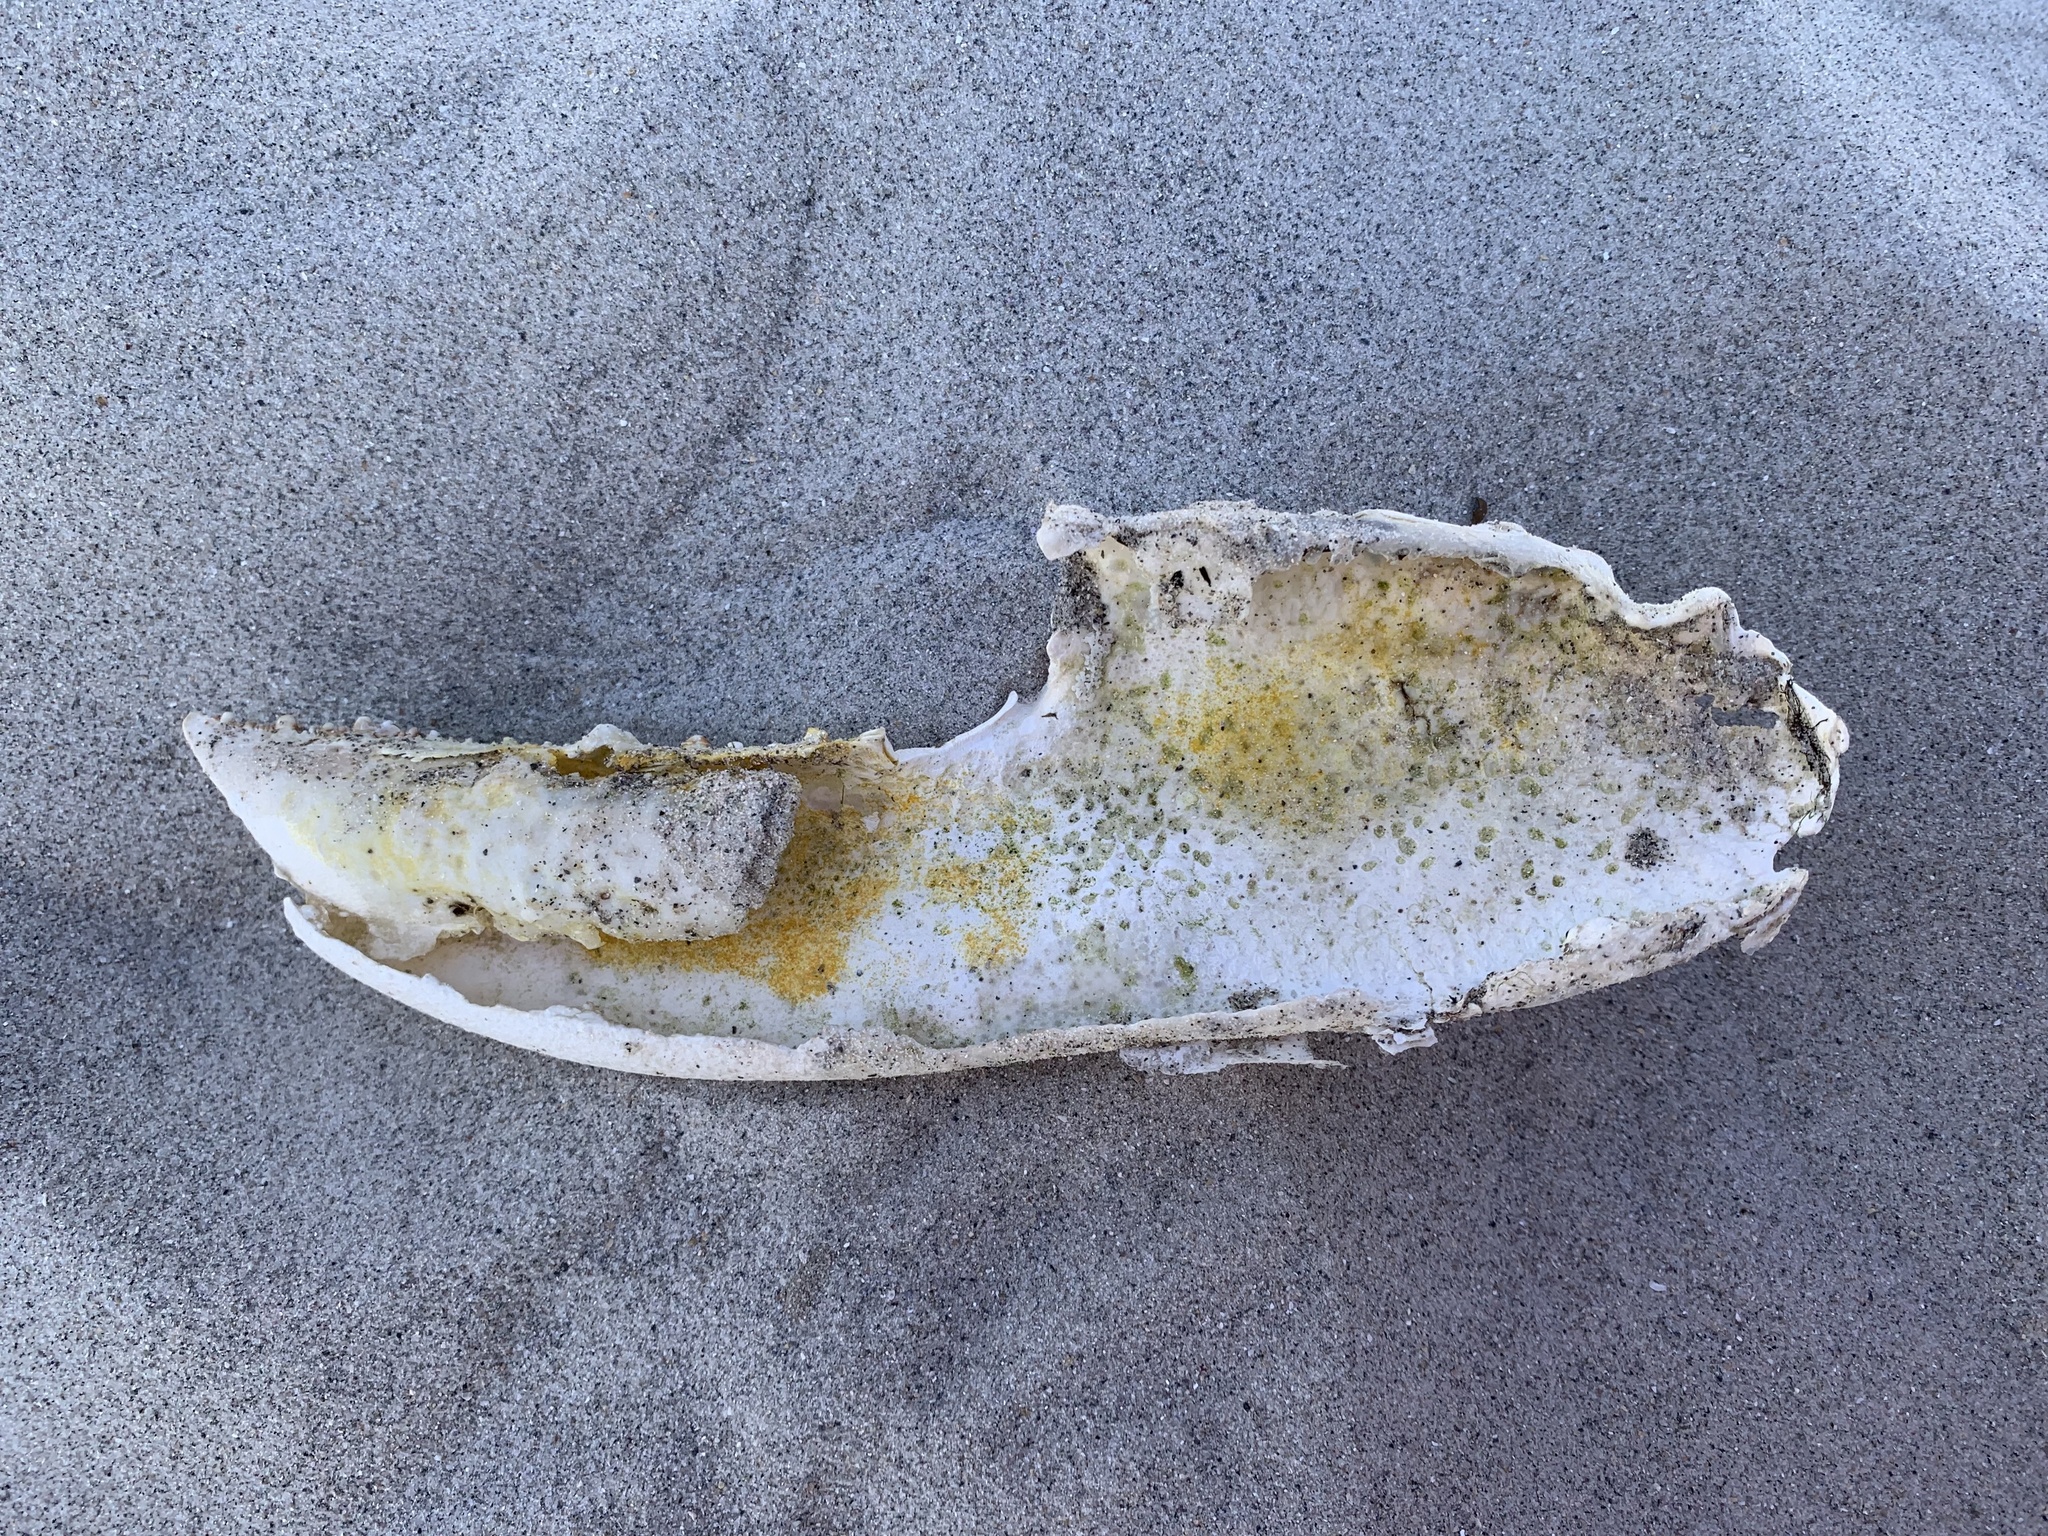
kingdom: Animalia
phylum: Arthropoda
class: Malacostraca
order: Decapoda
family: Nephropidae
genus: Homarus
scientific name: Homarus gammarus
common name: European lobster
